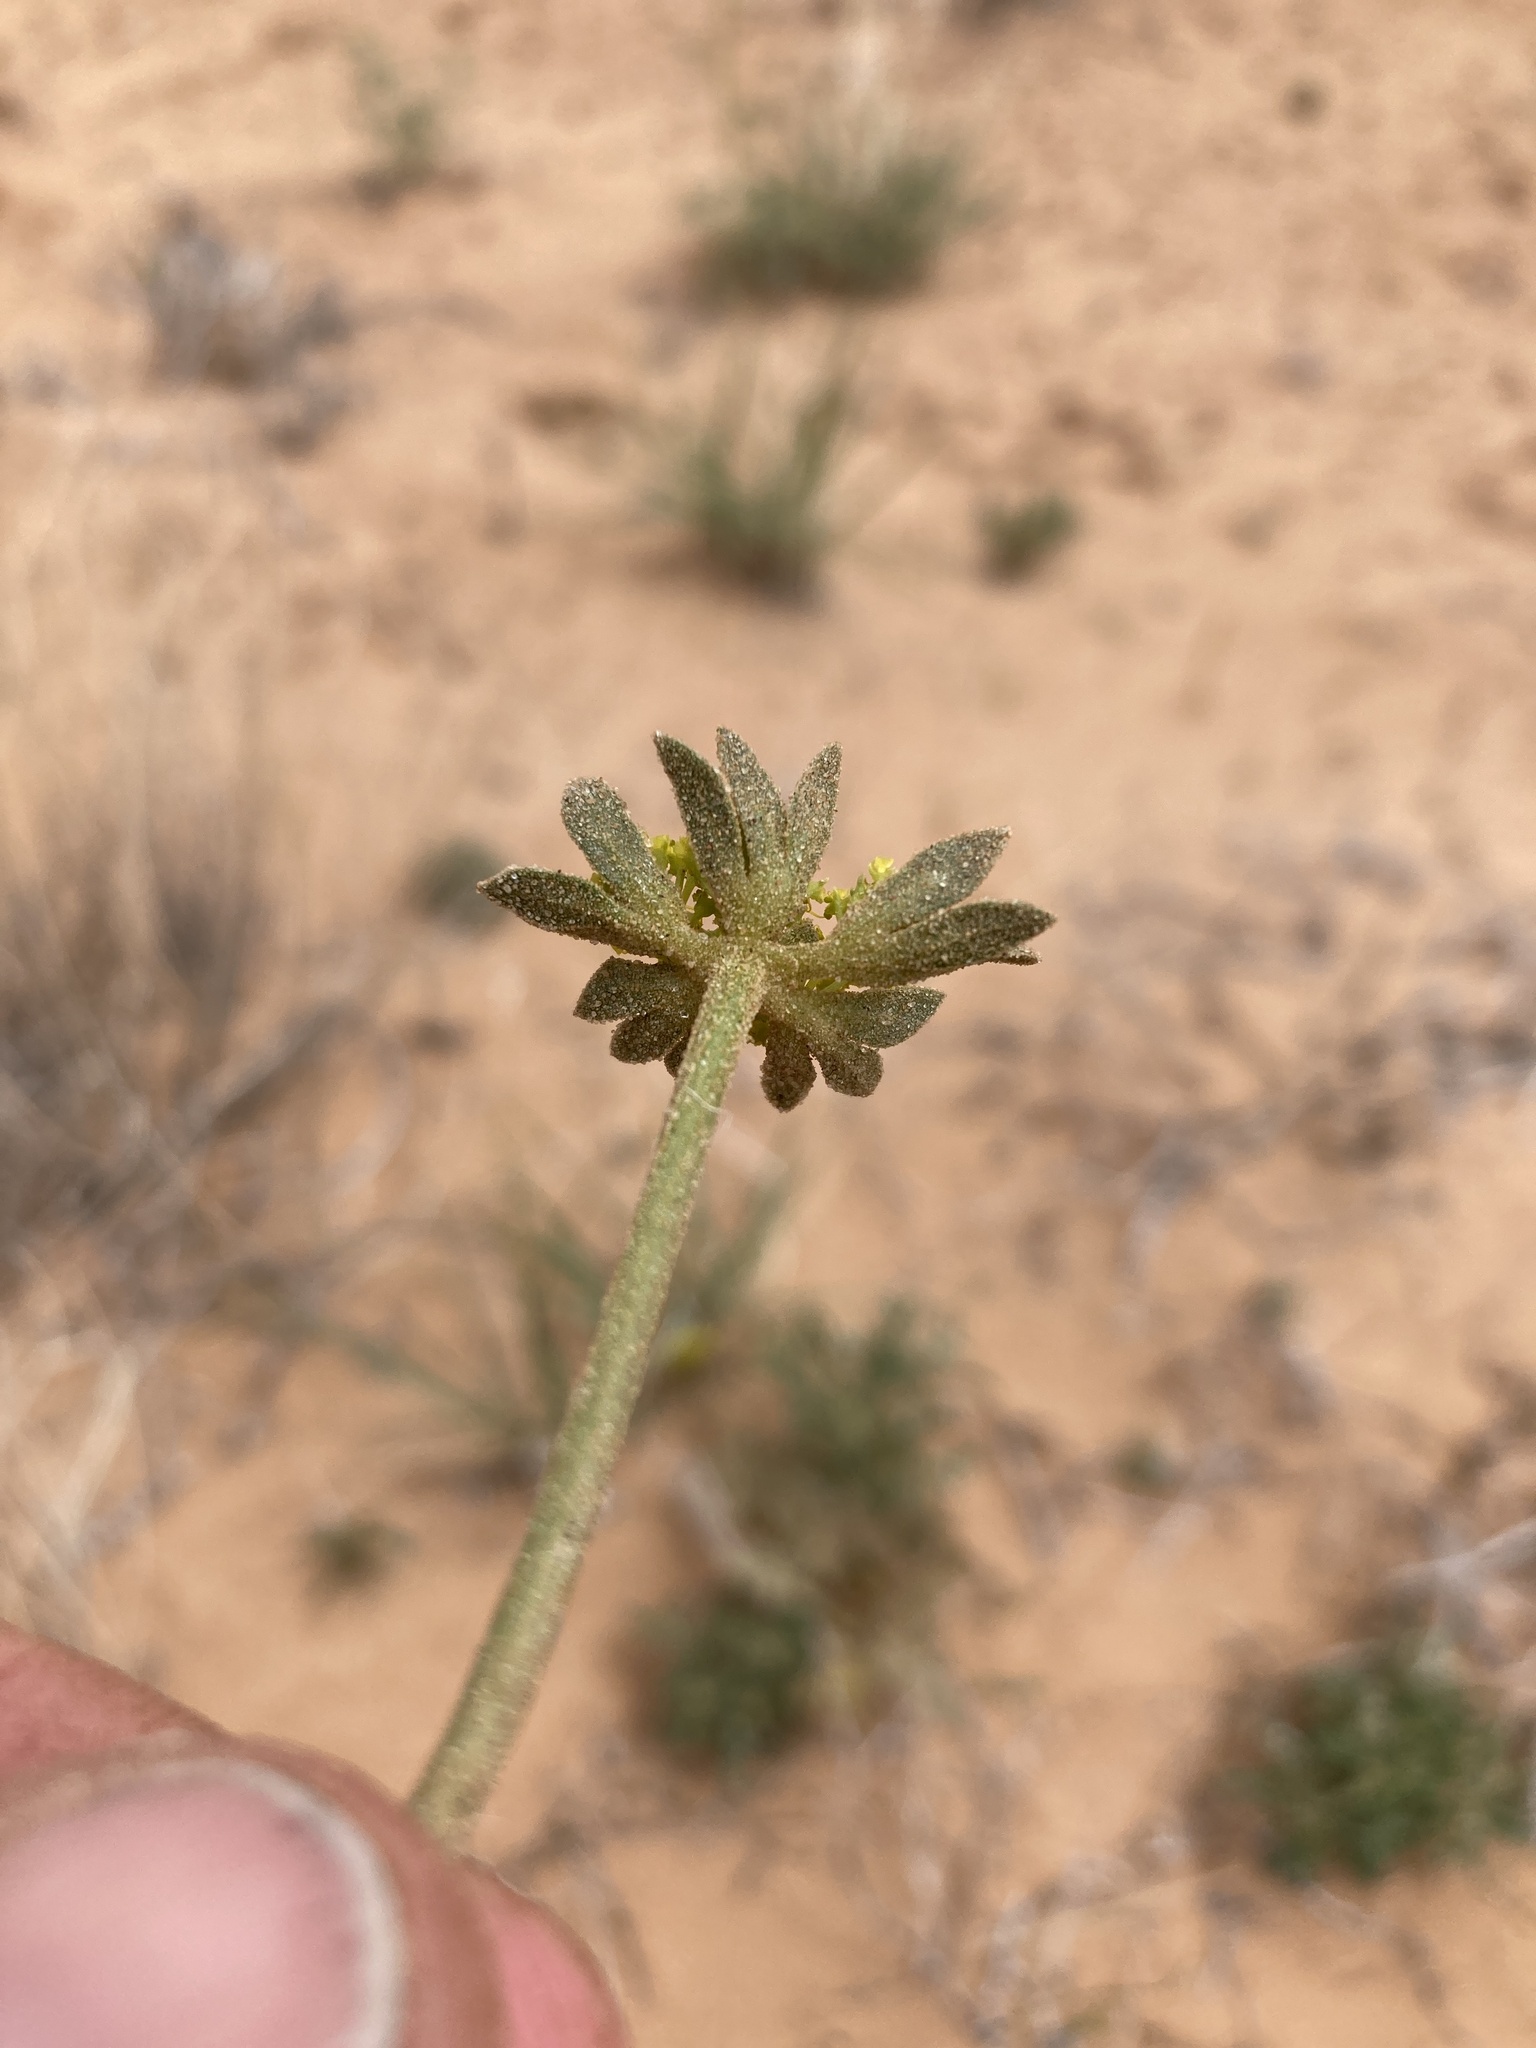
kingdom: Plantae
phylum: Tracheophyta
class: Magnoliopsida
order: Apiales
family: Apiaceae
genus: Cymopterus
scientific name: Cymopterus glomeratus
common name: Plains spring parsley
